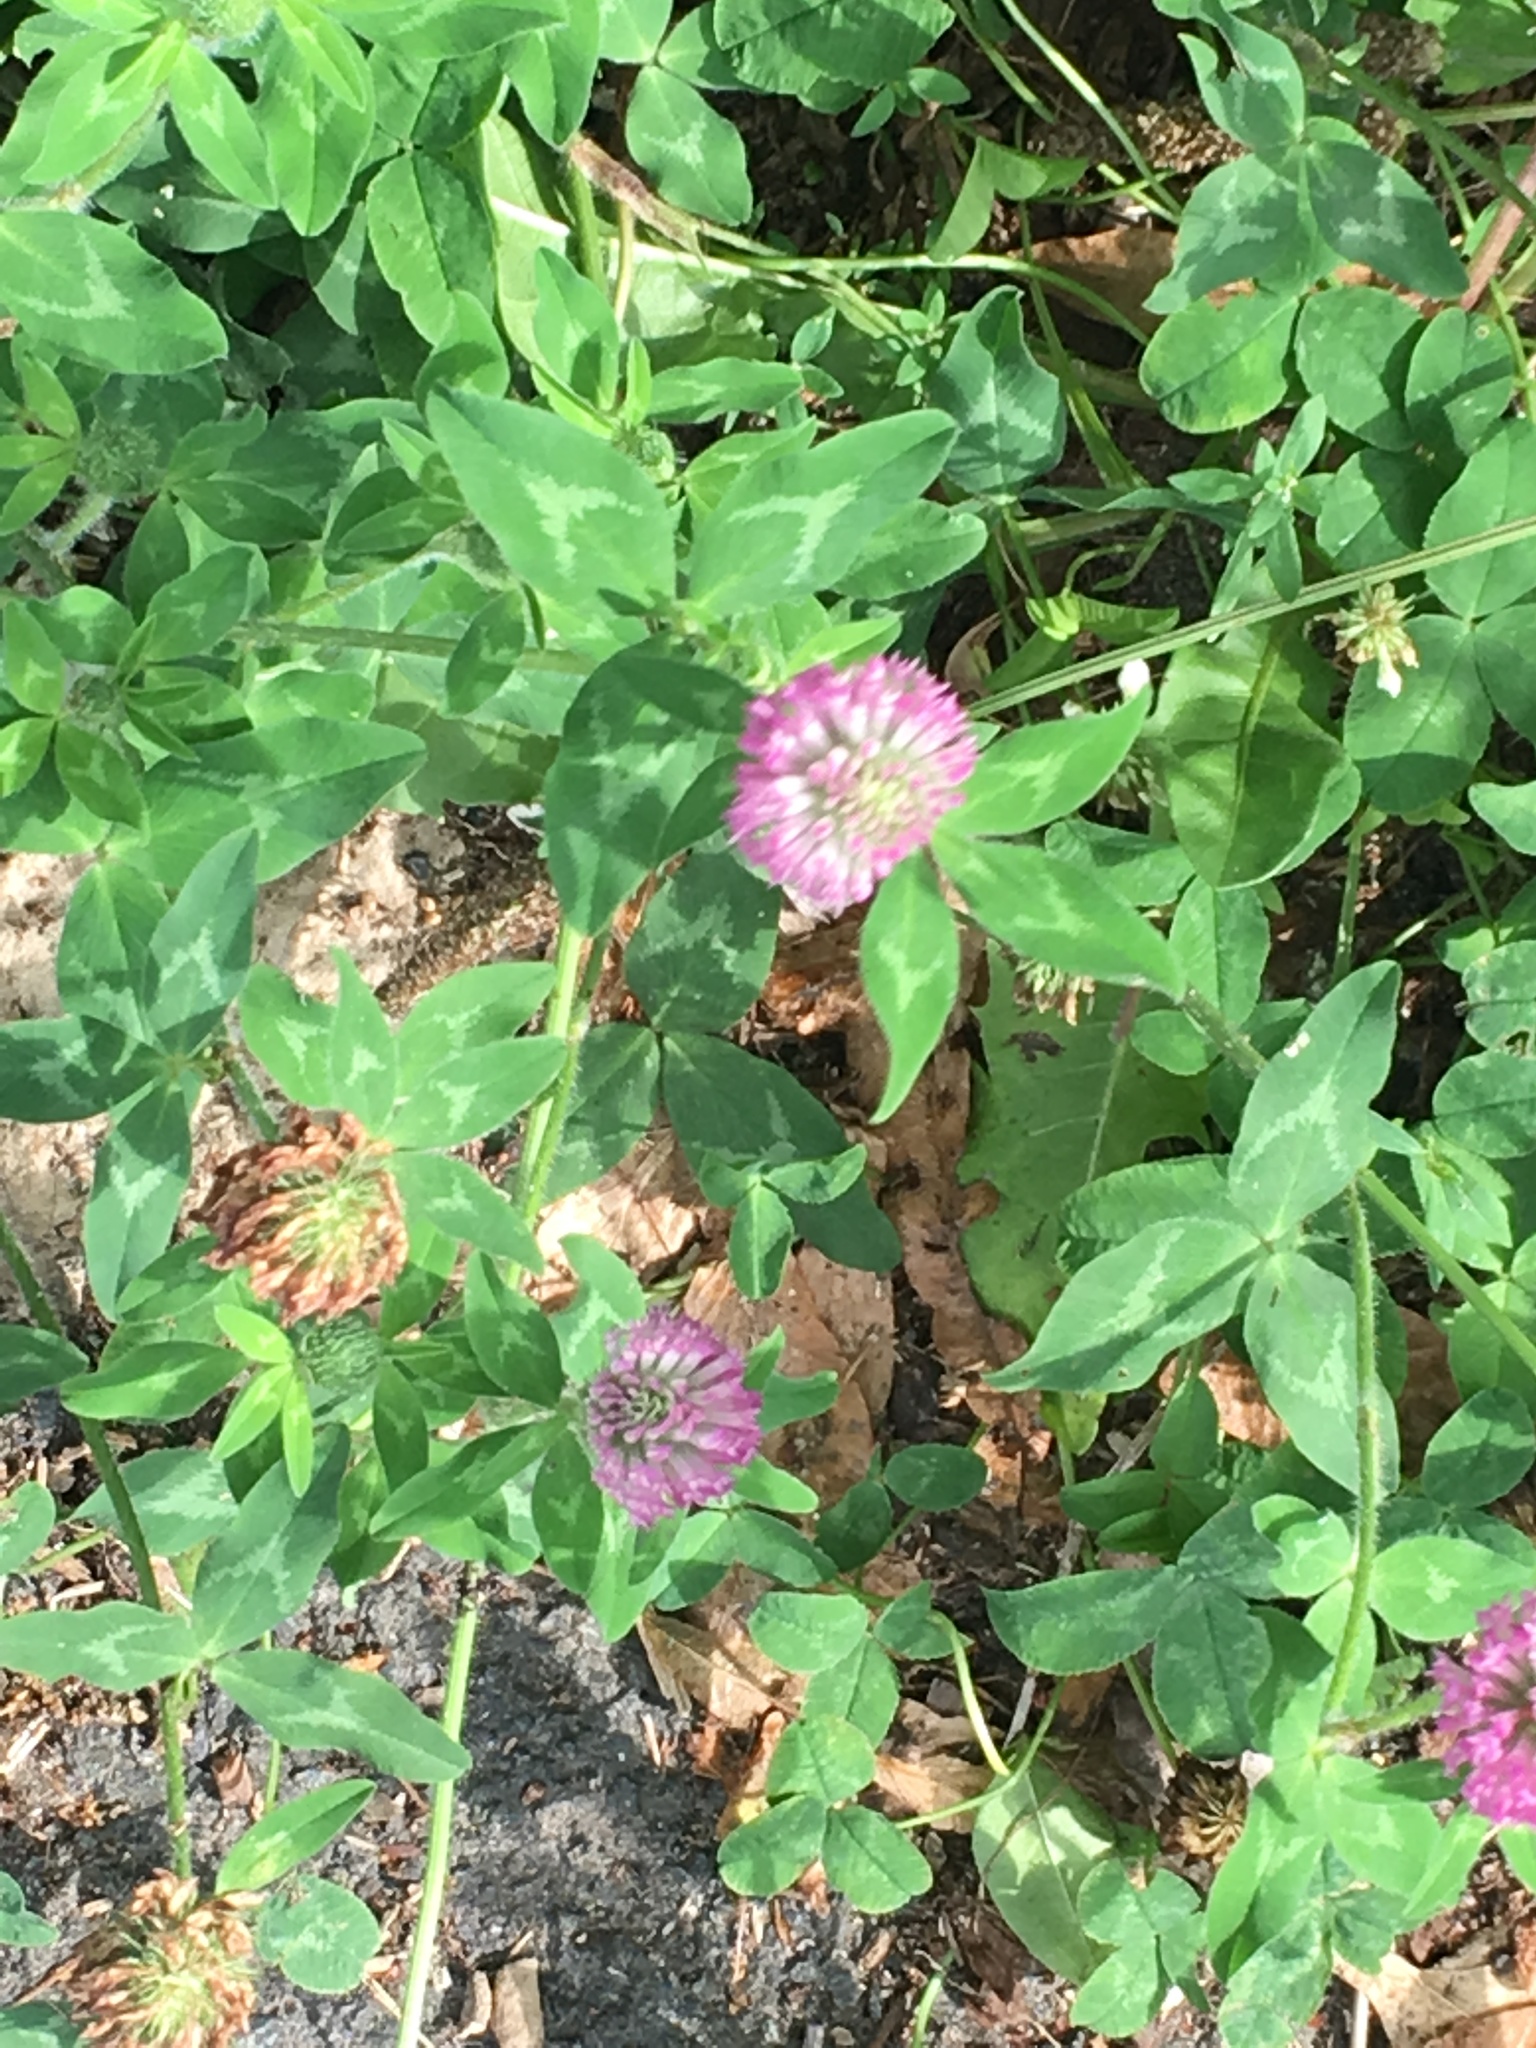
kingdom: Plantae
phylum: Tracheophyta
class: Magnoliopsida
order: Fabales
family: Fabaceae
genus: Trifolium
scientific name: Trifolium pratense
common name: Red clover
